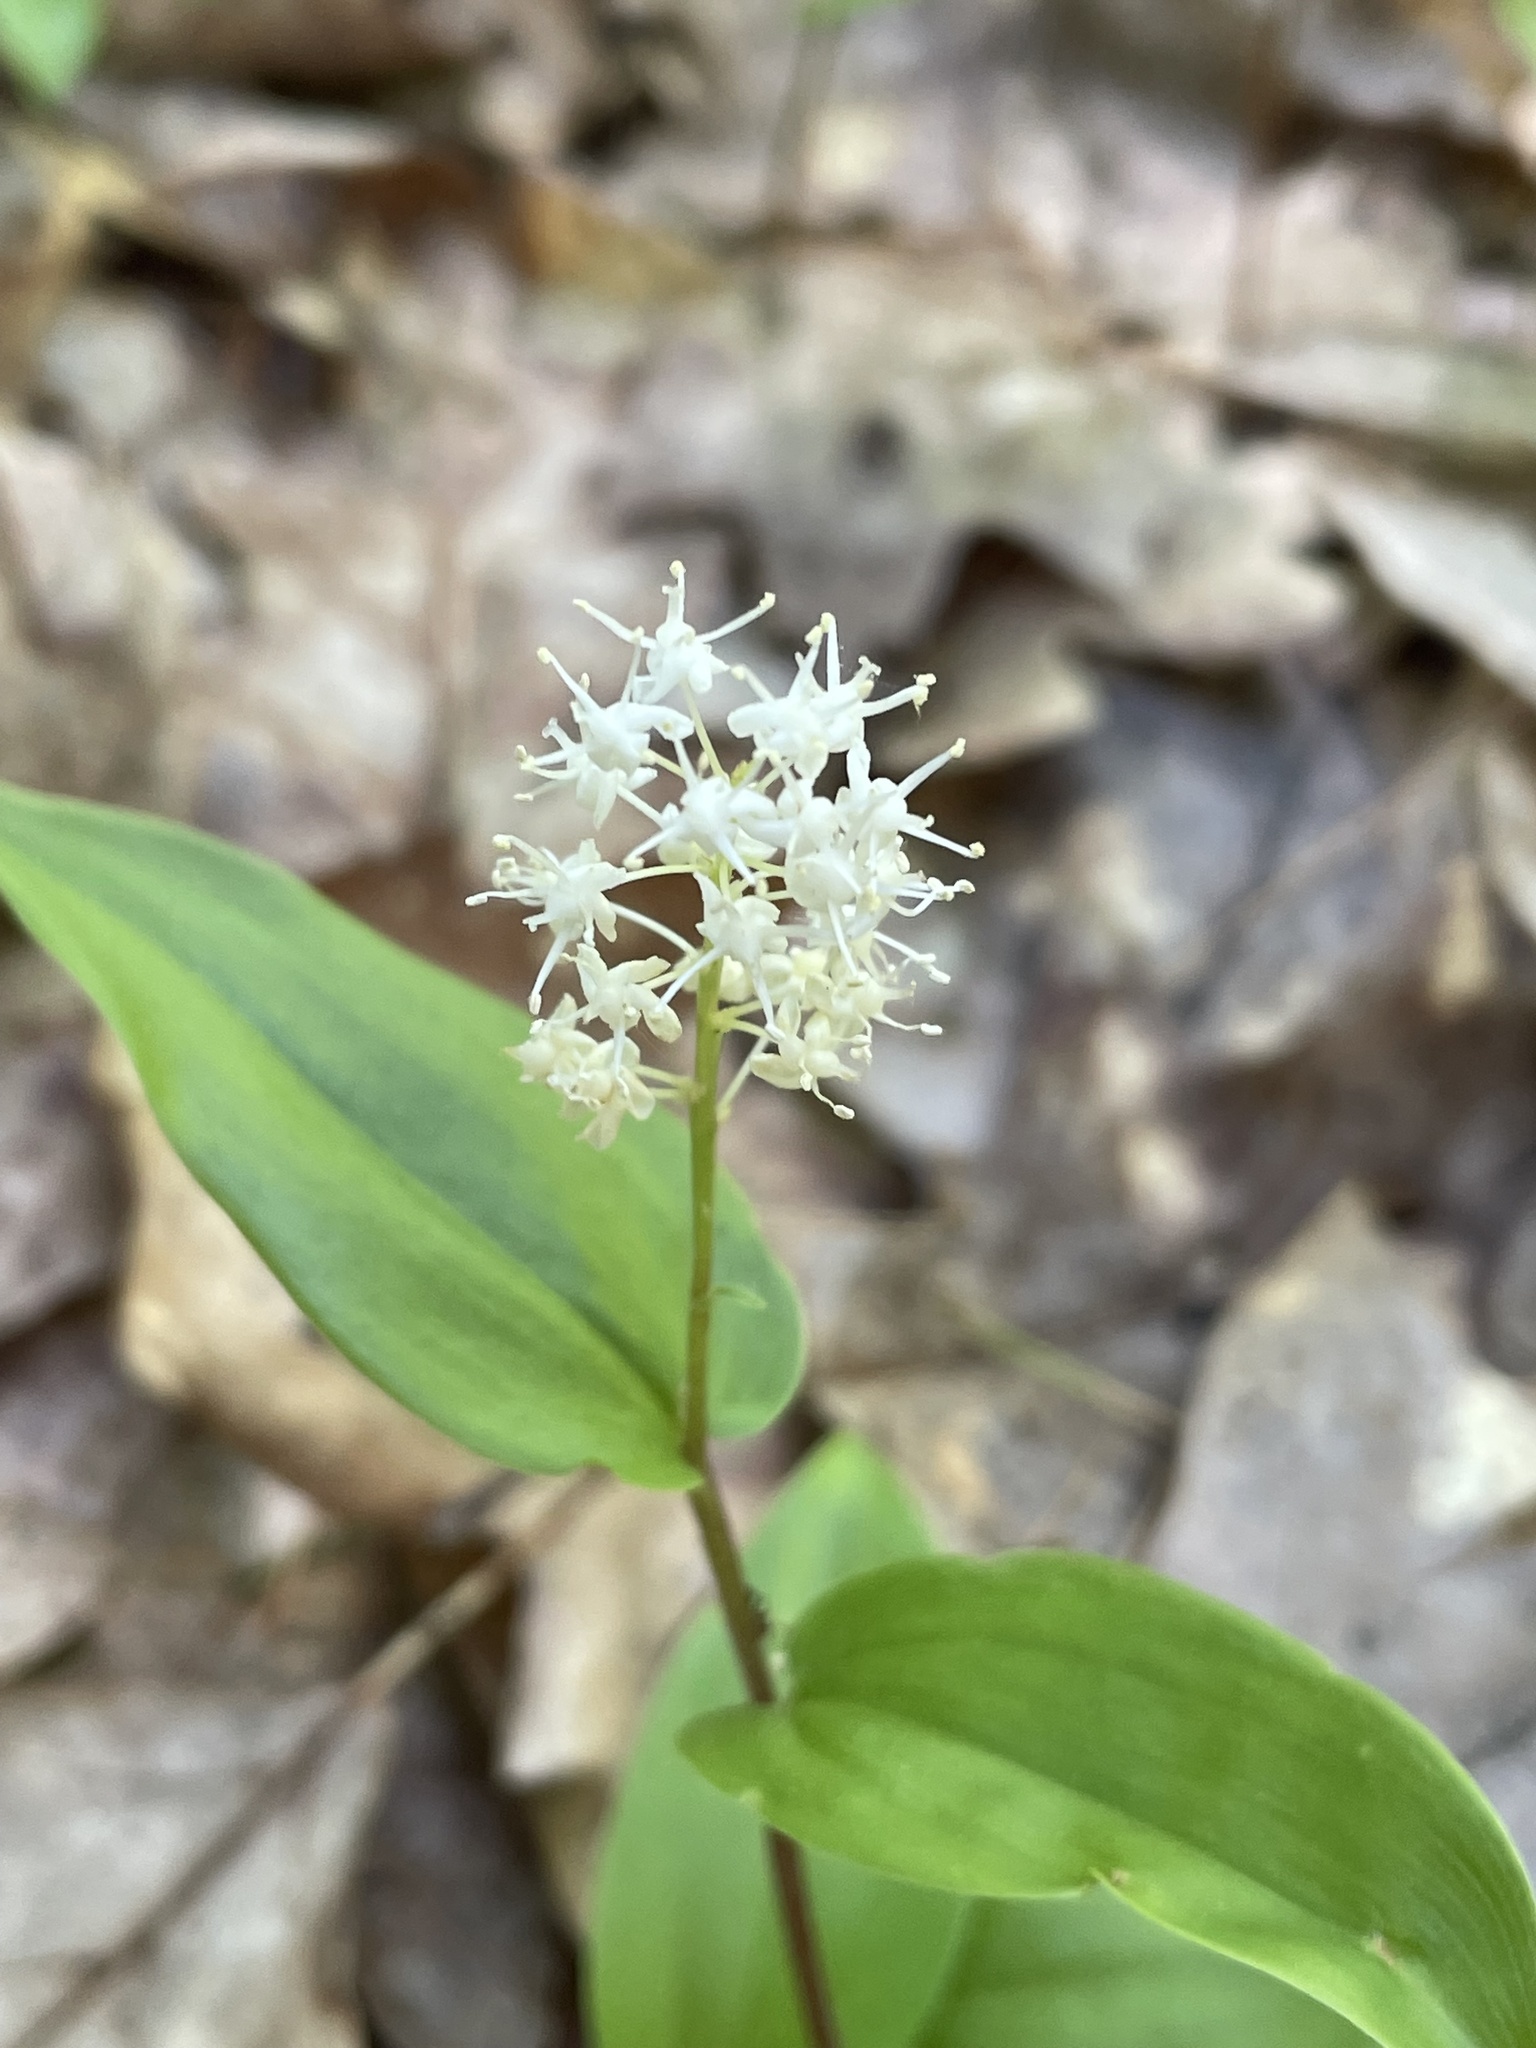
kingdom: Plantae
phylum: Tracheophyta
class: Liliopsida
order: Asparagales
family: Asparagaceae
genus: Maianthemum
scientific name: Maianthemum canadense
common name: False lily-of-the-valley
